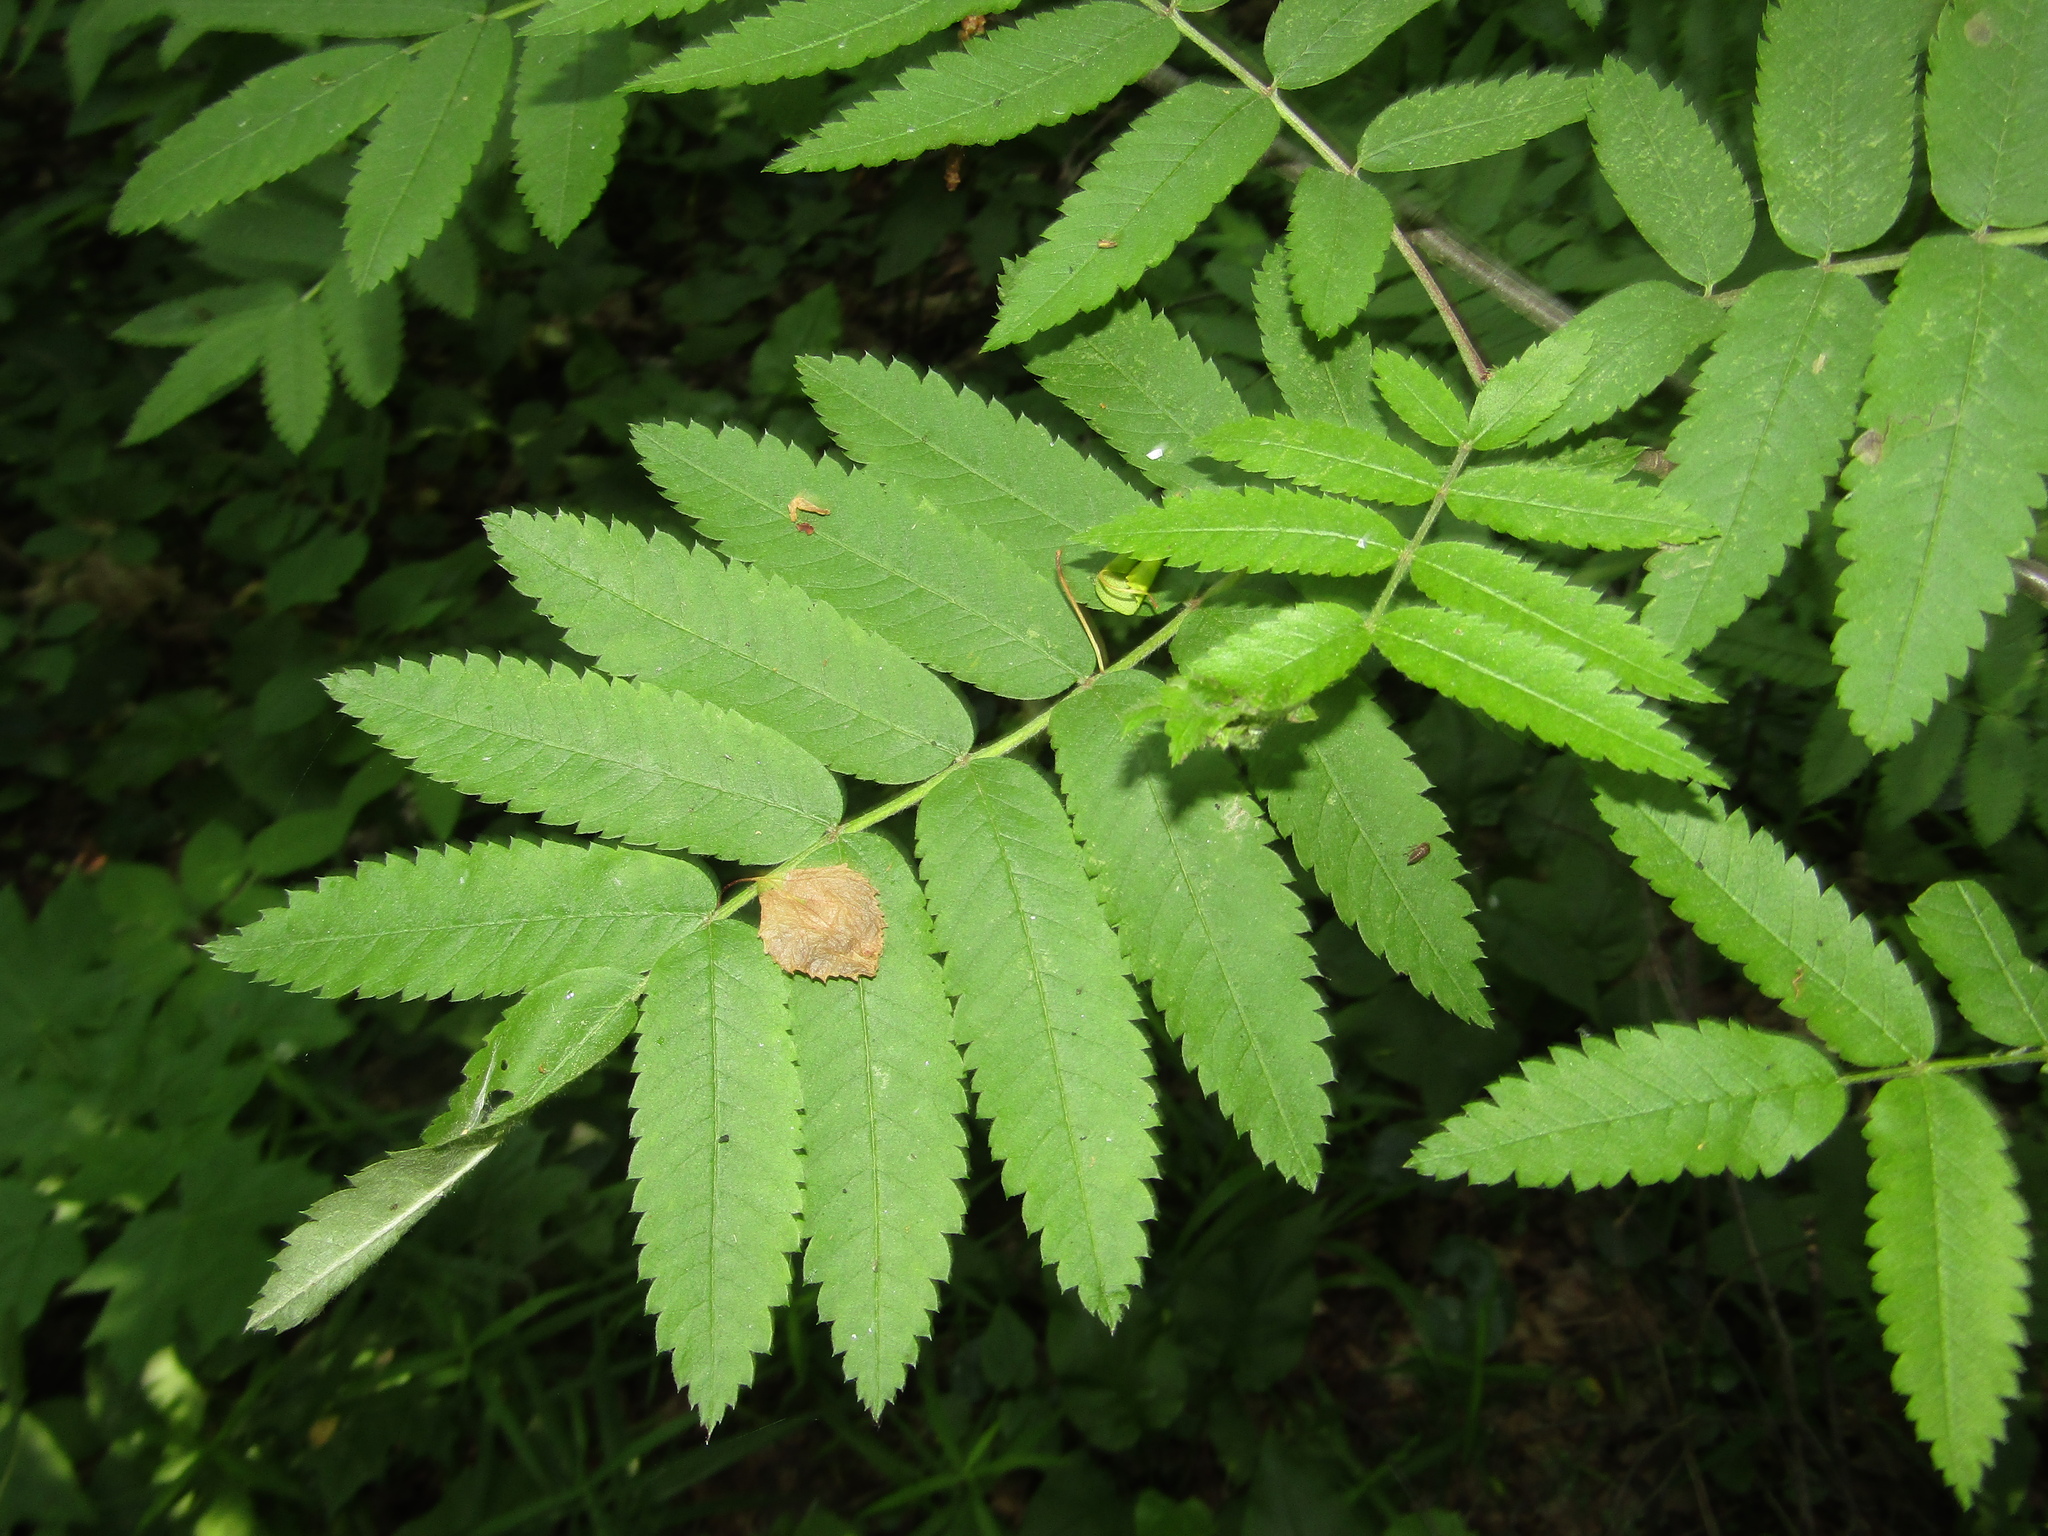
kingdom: Plantae
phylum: Tracheophyta
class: Magnoliopsida
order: Rosales
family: Rosaceae
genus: Sorbus
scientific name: Sorbus aucuparia
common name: Rowan
